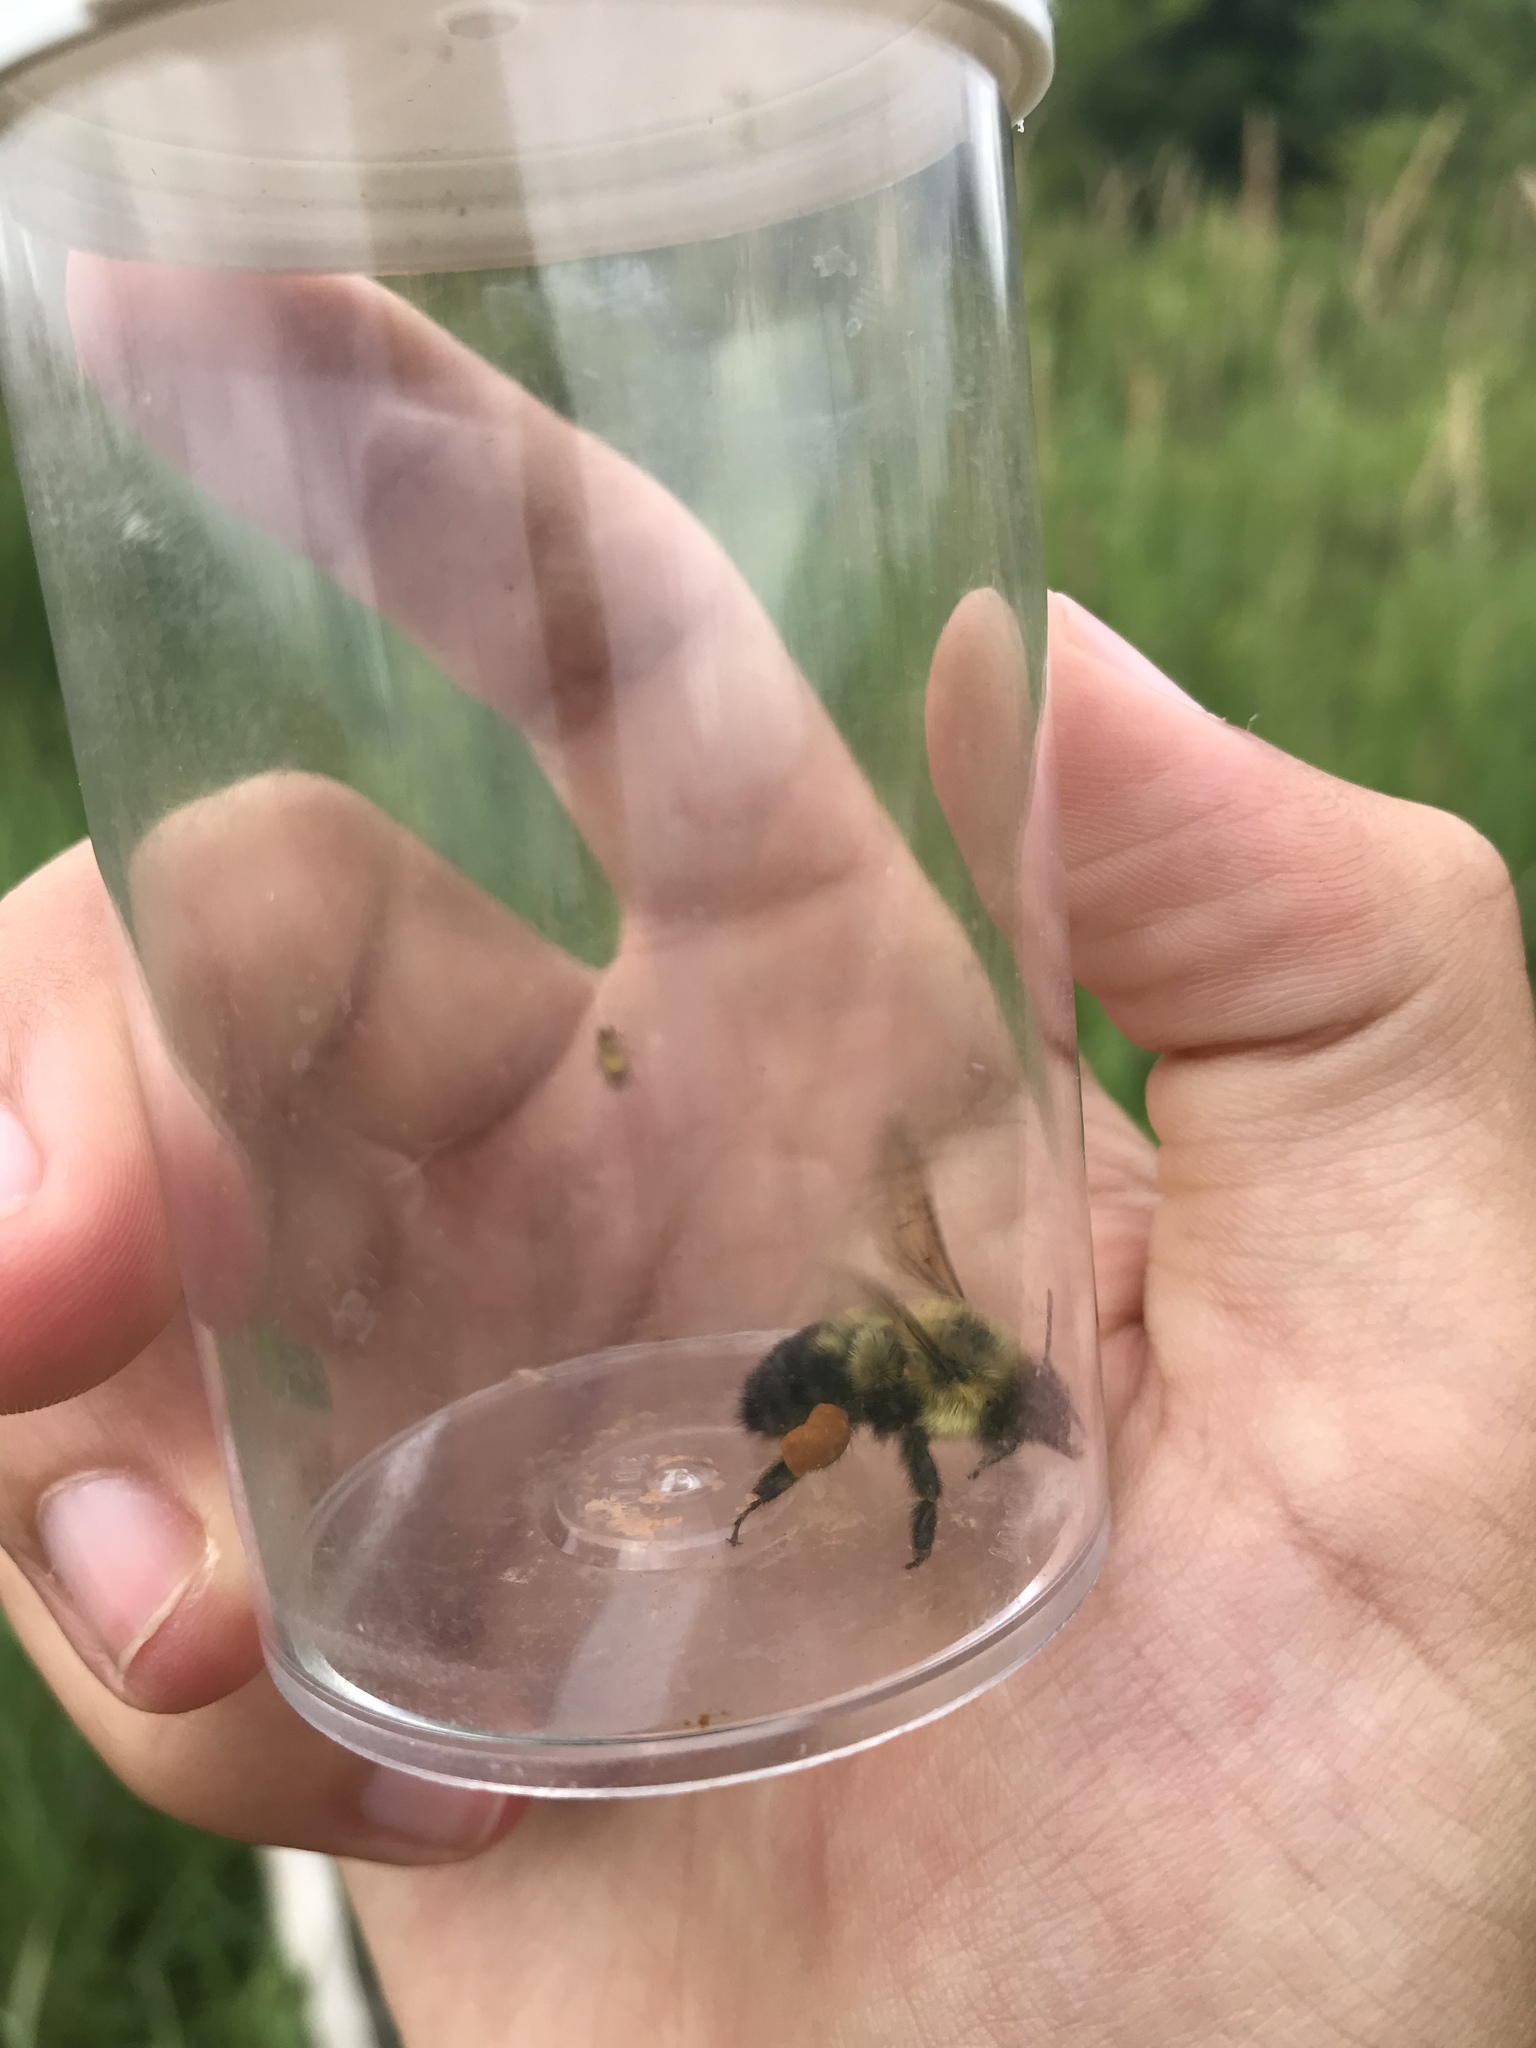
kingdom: Animalia
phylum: Arthropoda
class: Insecta
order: Hymenoptera
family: Apidae
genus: Bombus
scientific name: Bombus bimaculatus
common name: Two-spotted bumble bee
